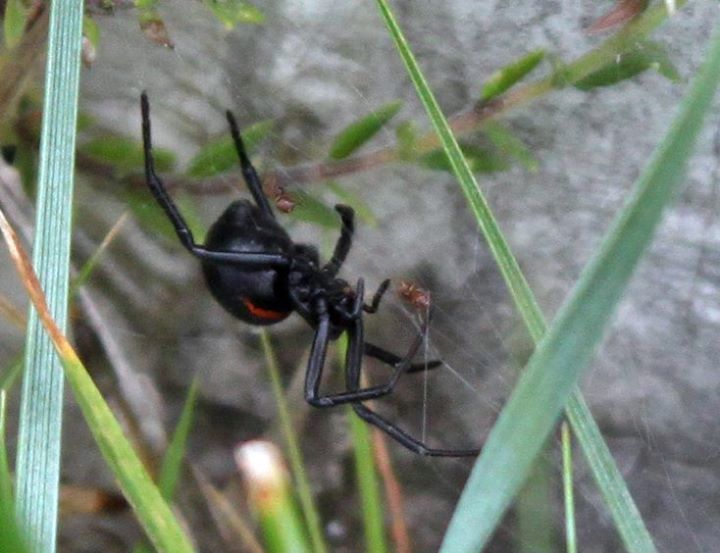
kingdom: Animalia
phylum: Arthropoda
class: Arachnida
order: Araneae
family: Theridiidae
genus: Steatoda
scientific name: Steatoda paykulliana
